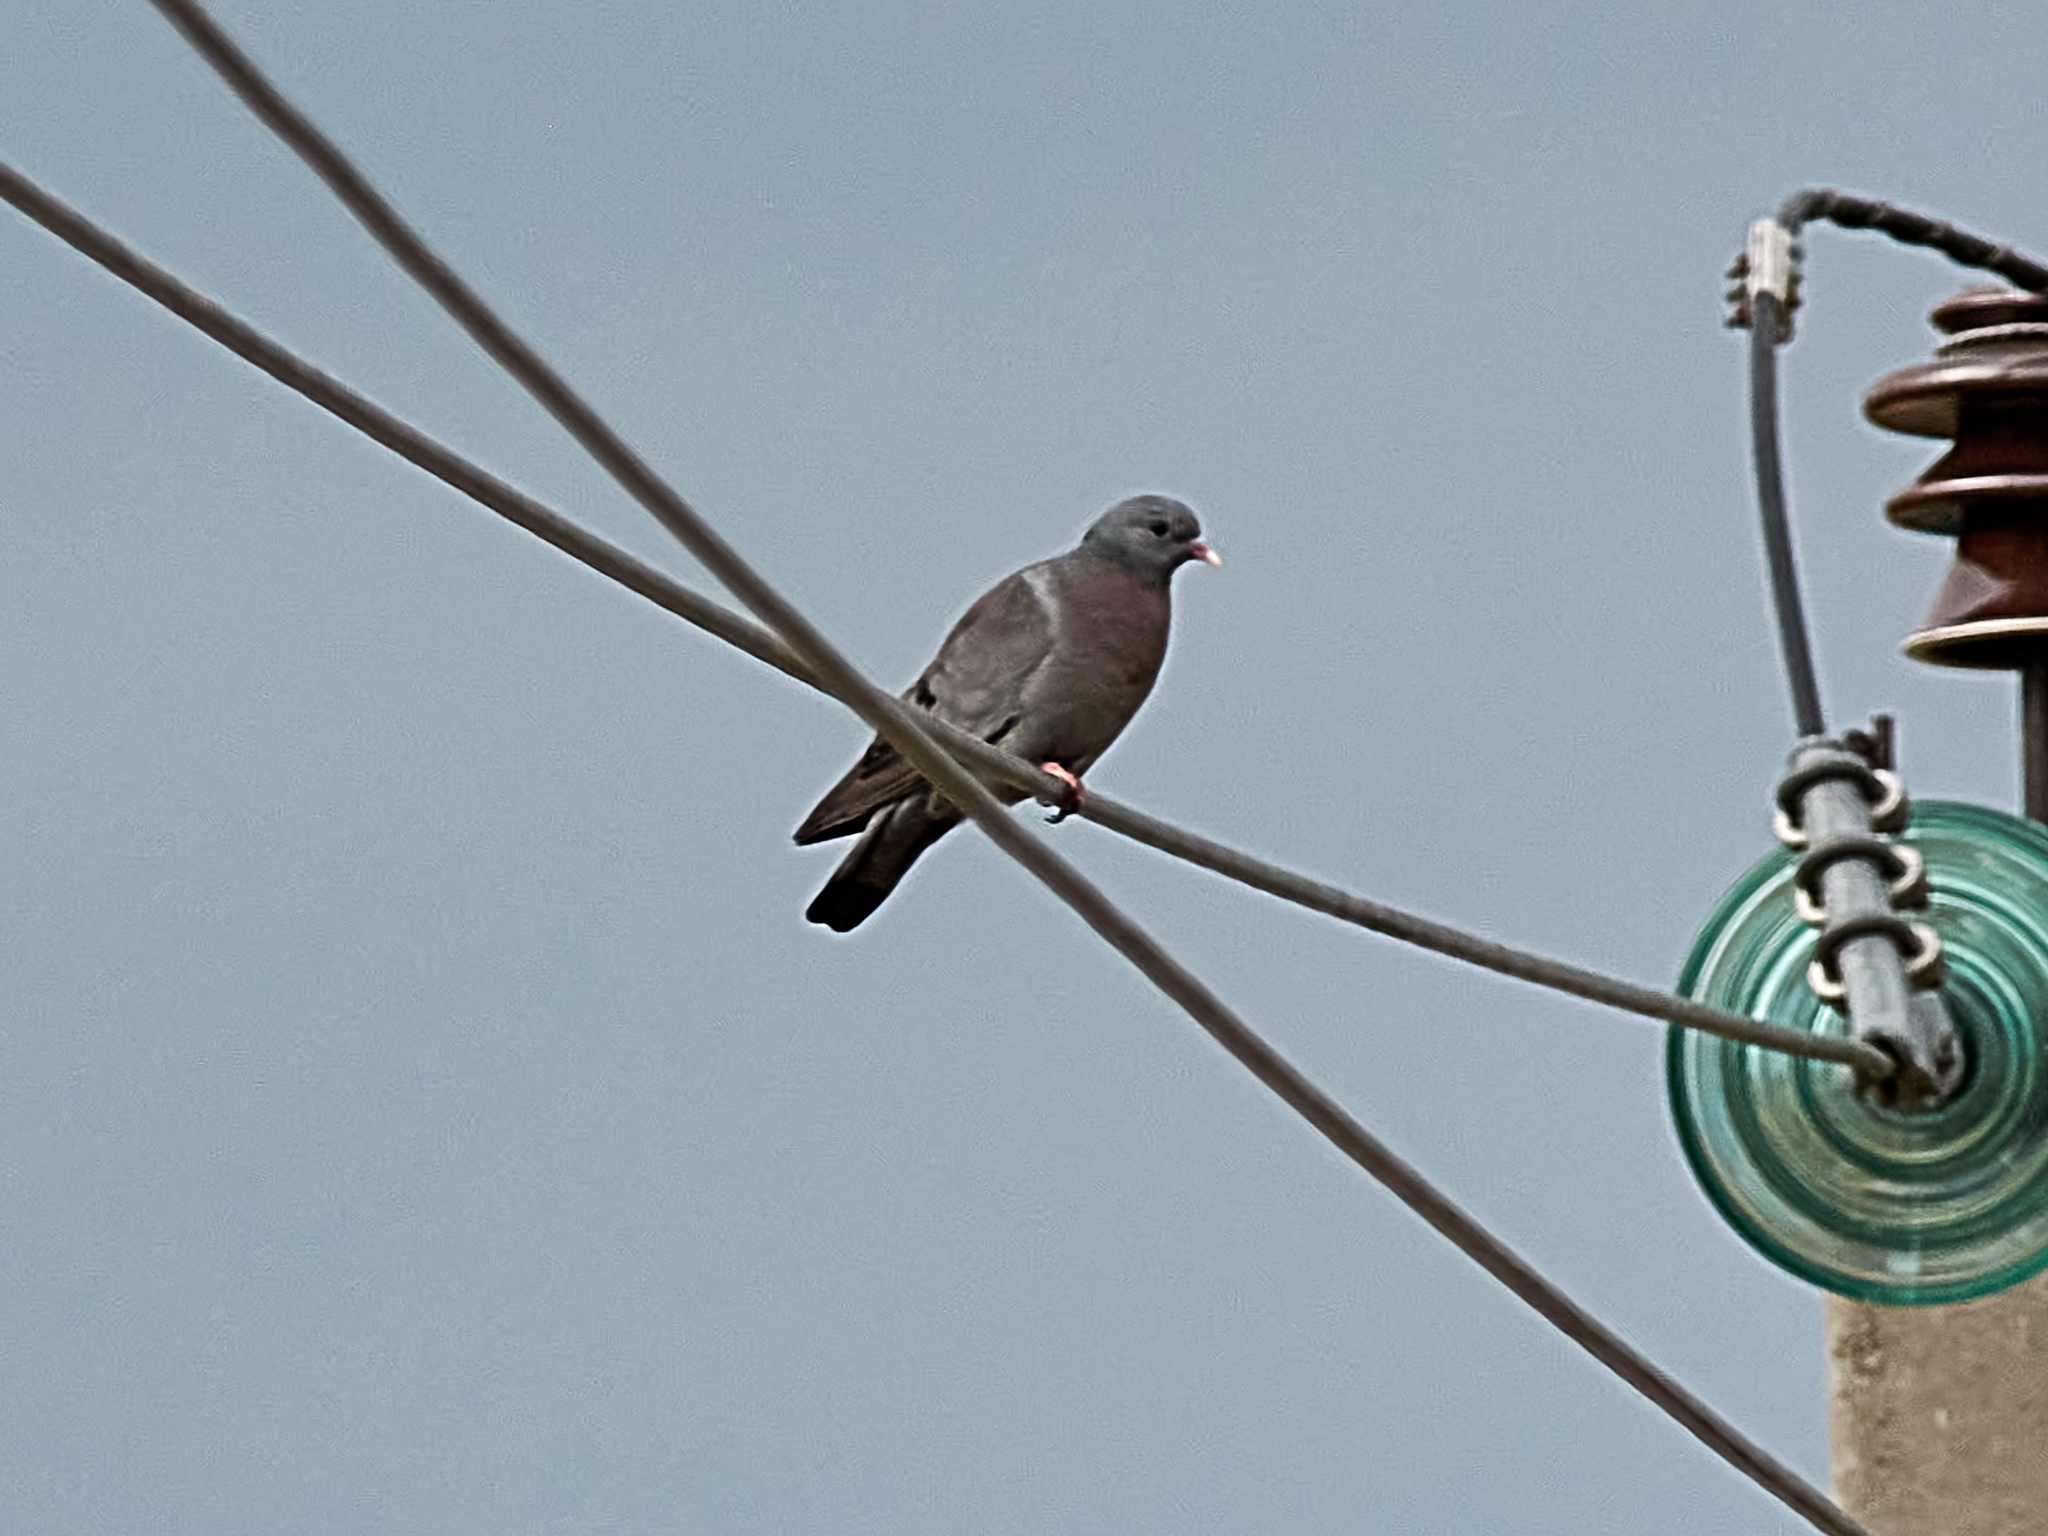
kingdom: Animalia
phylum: Chordata
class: Aves
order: Columbiformes
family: Columbidae
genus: Columba
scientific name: Columba oenas
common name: Stock dove
